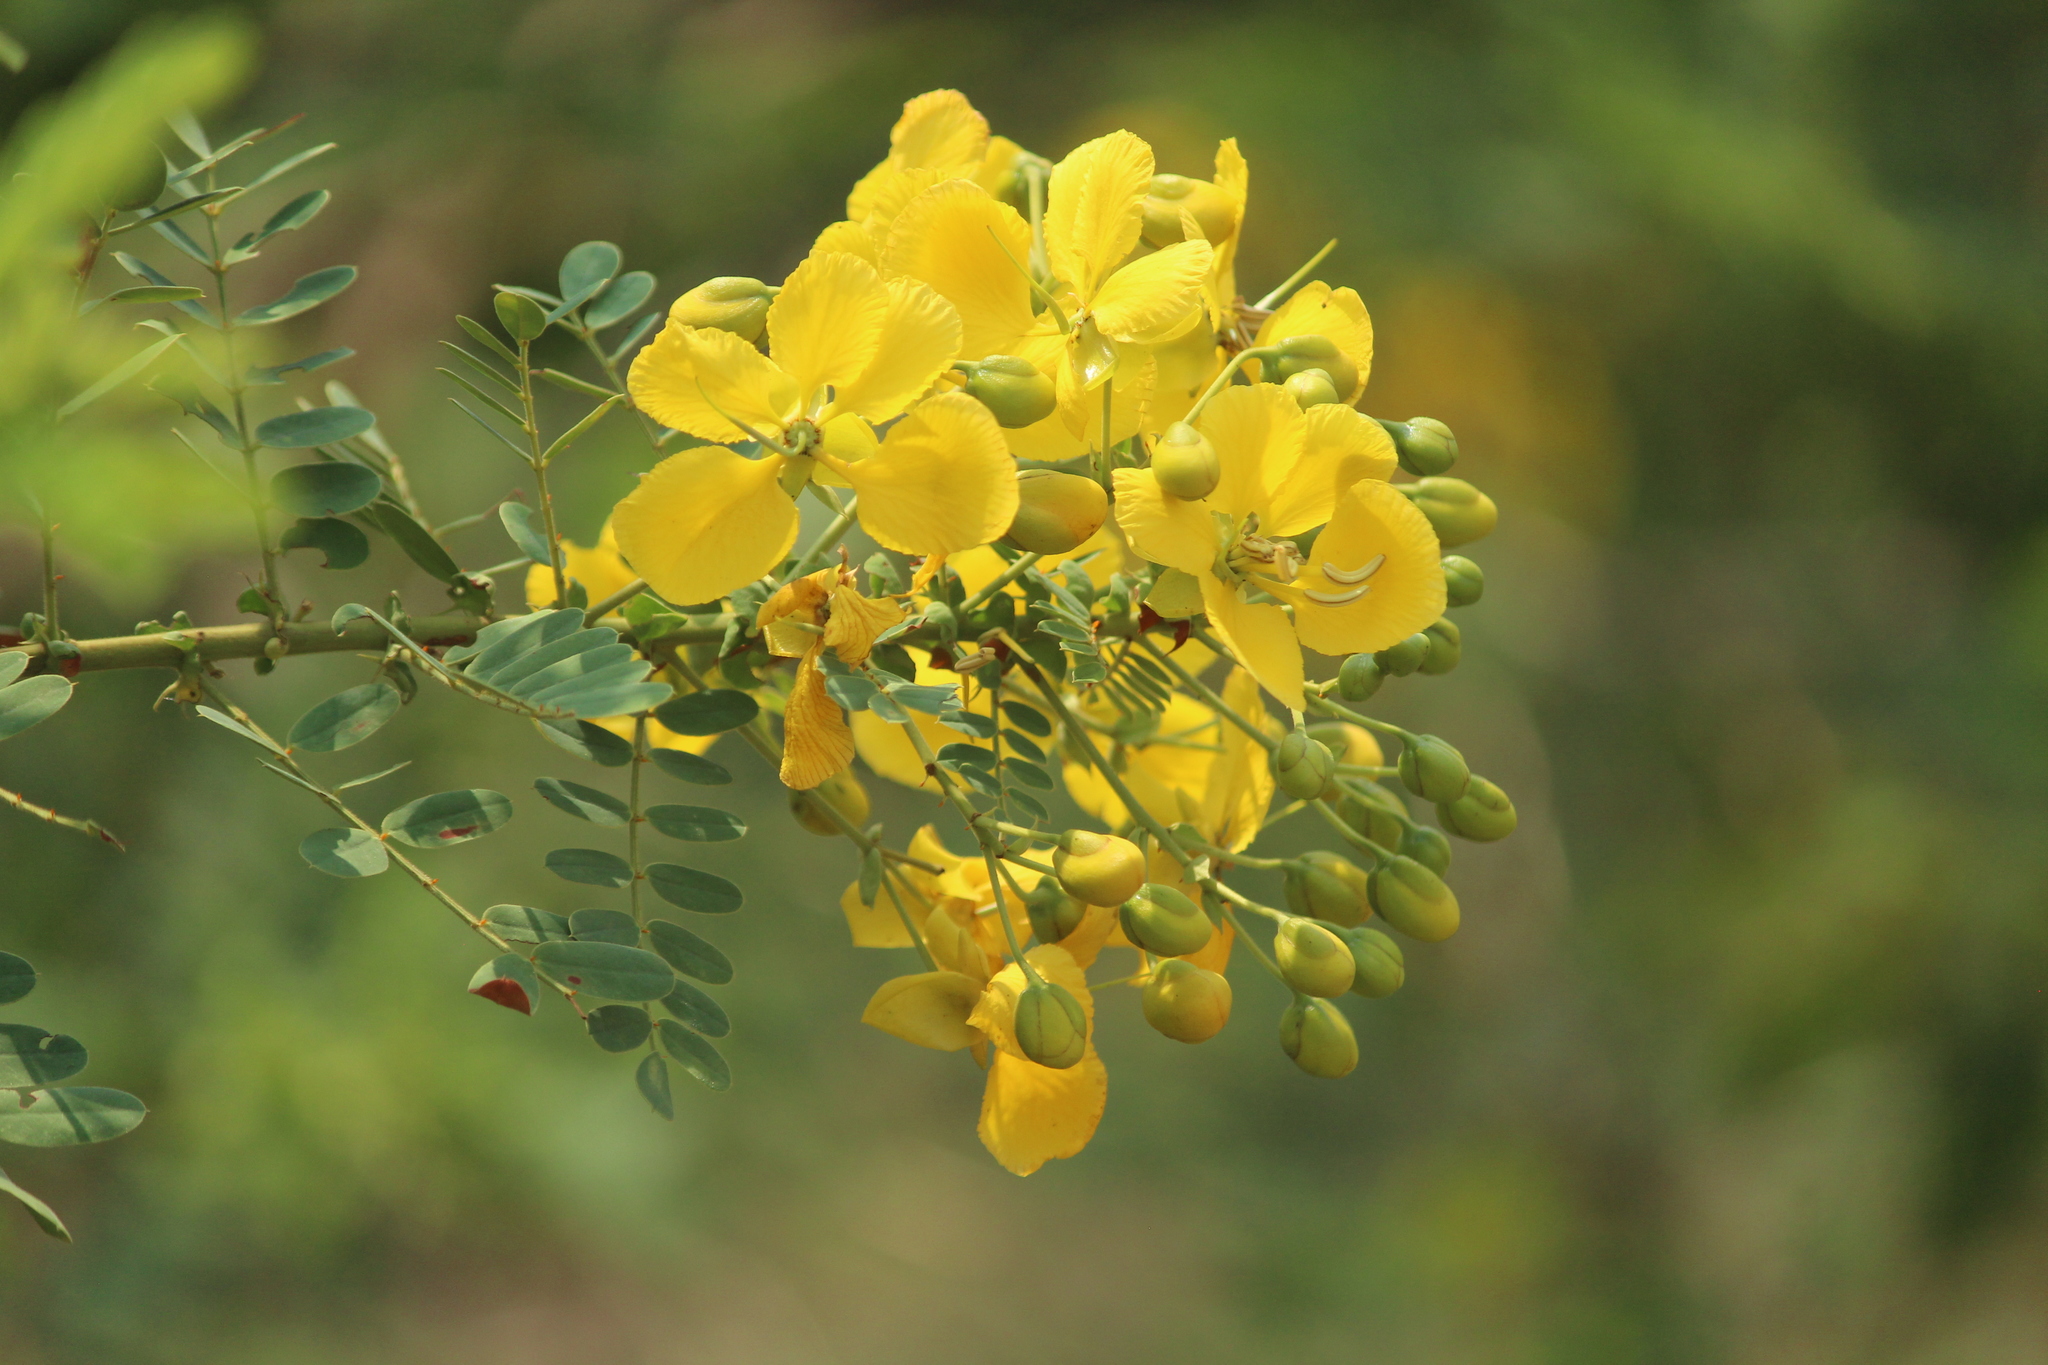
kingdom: Plantae
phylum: Tracheophyta
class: Magnoliopsida
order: Fabales
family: Fabaceae
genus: Senna
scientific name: Senna auriculata
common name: Tanner's cassia
